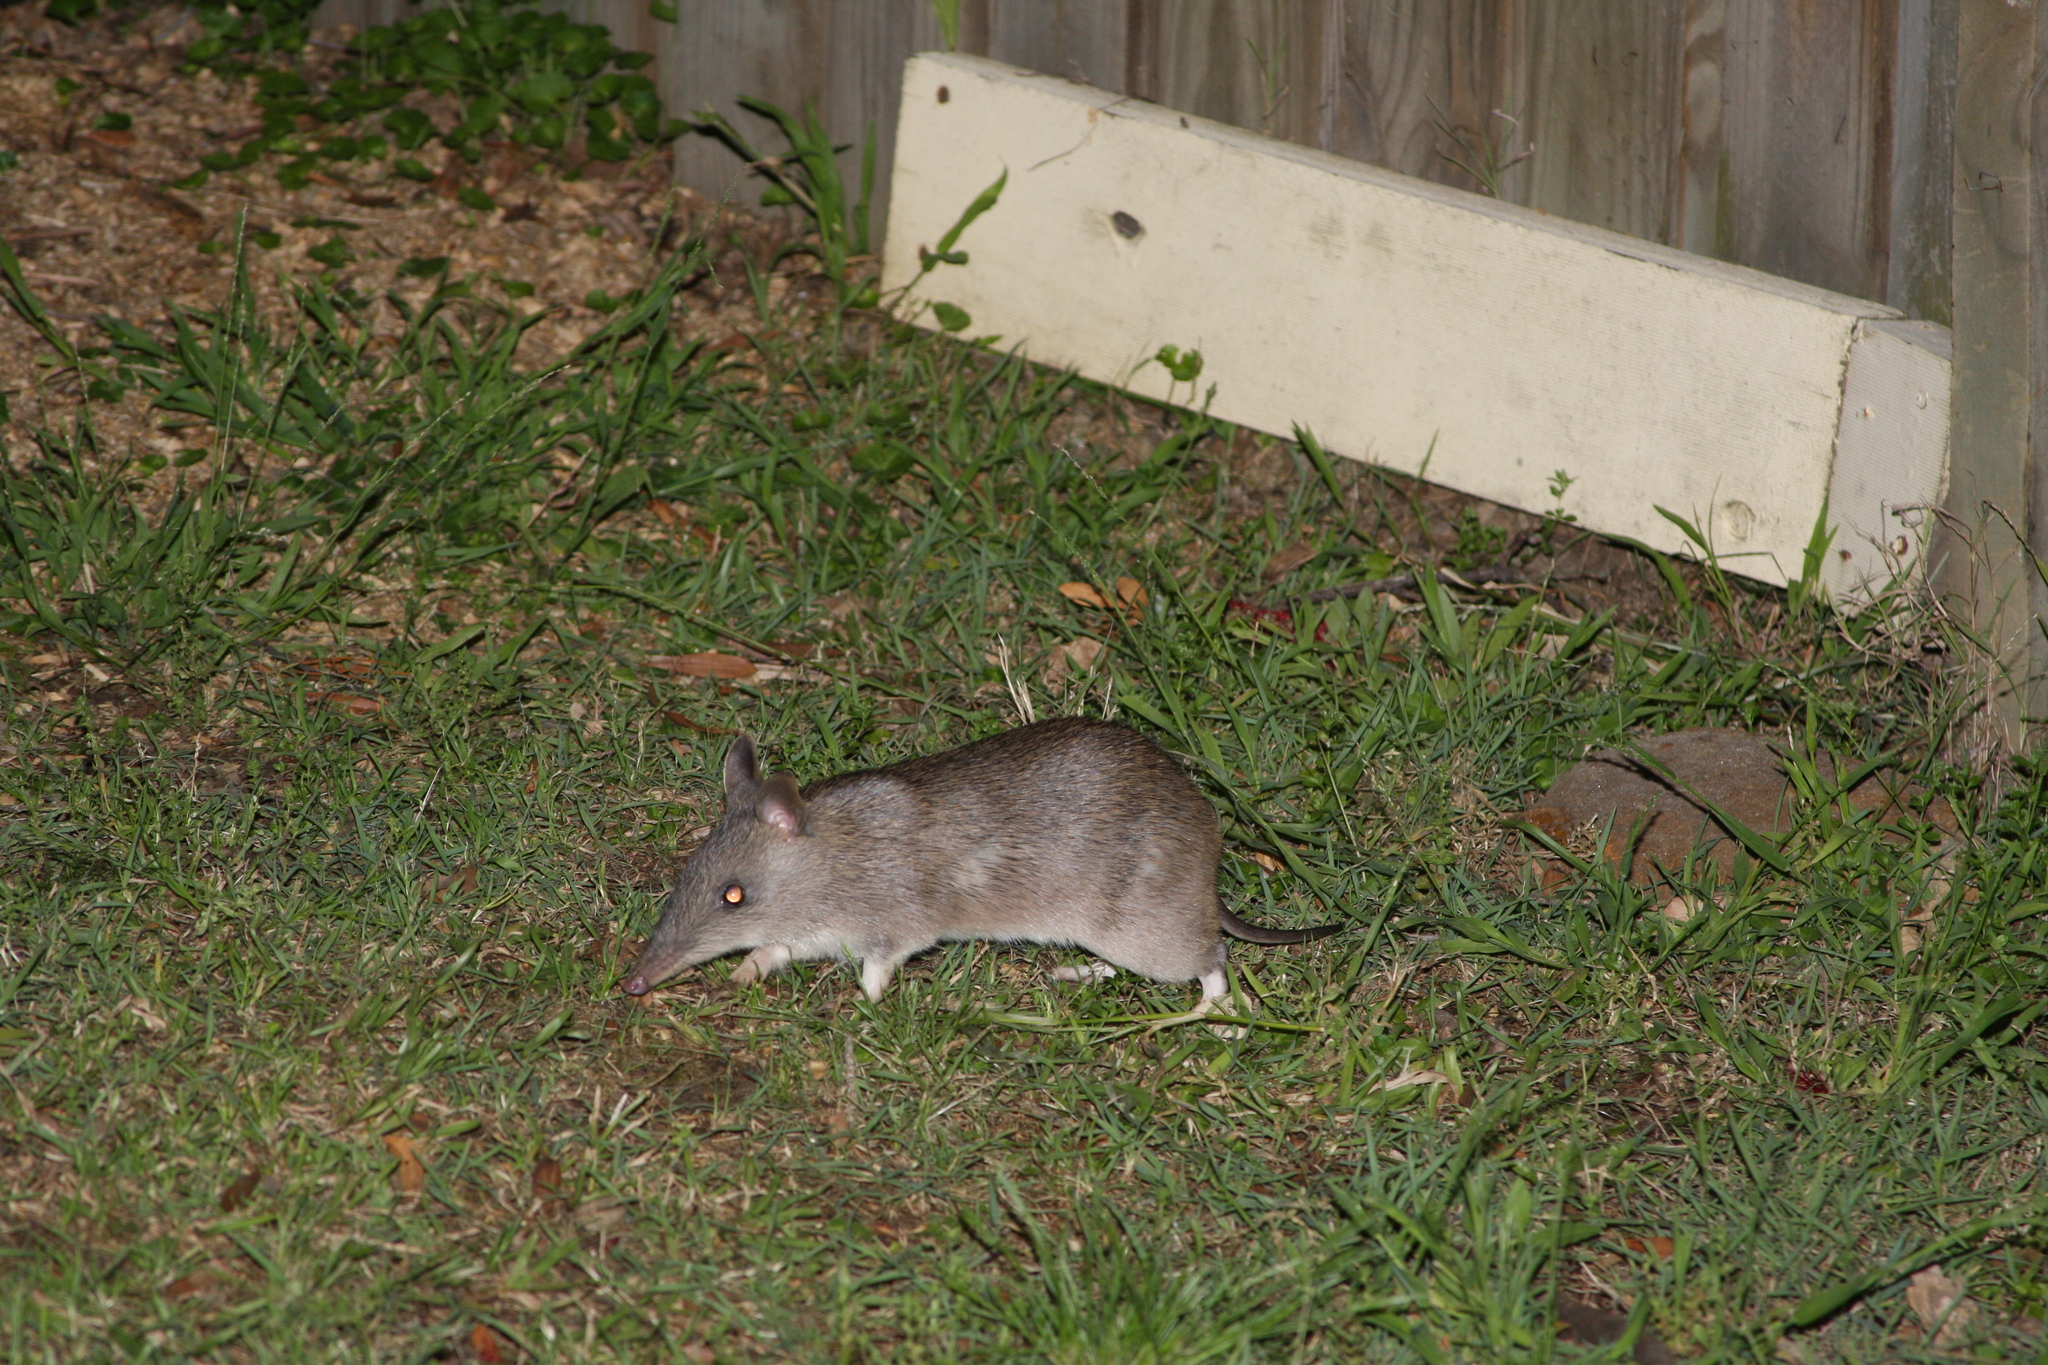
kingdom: Animalia
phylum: Chordata
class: Mammalia
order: Peramelemorphia
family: Peramelidae
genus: Perameles
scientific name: Perameles nasuta
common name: Long-nosed bandicoot
